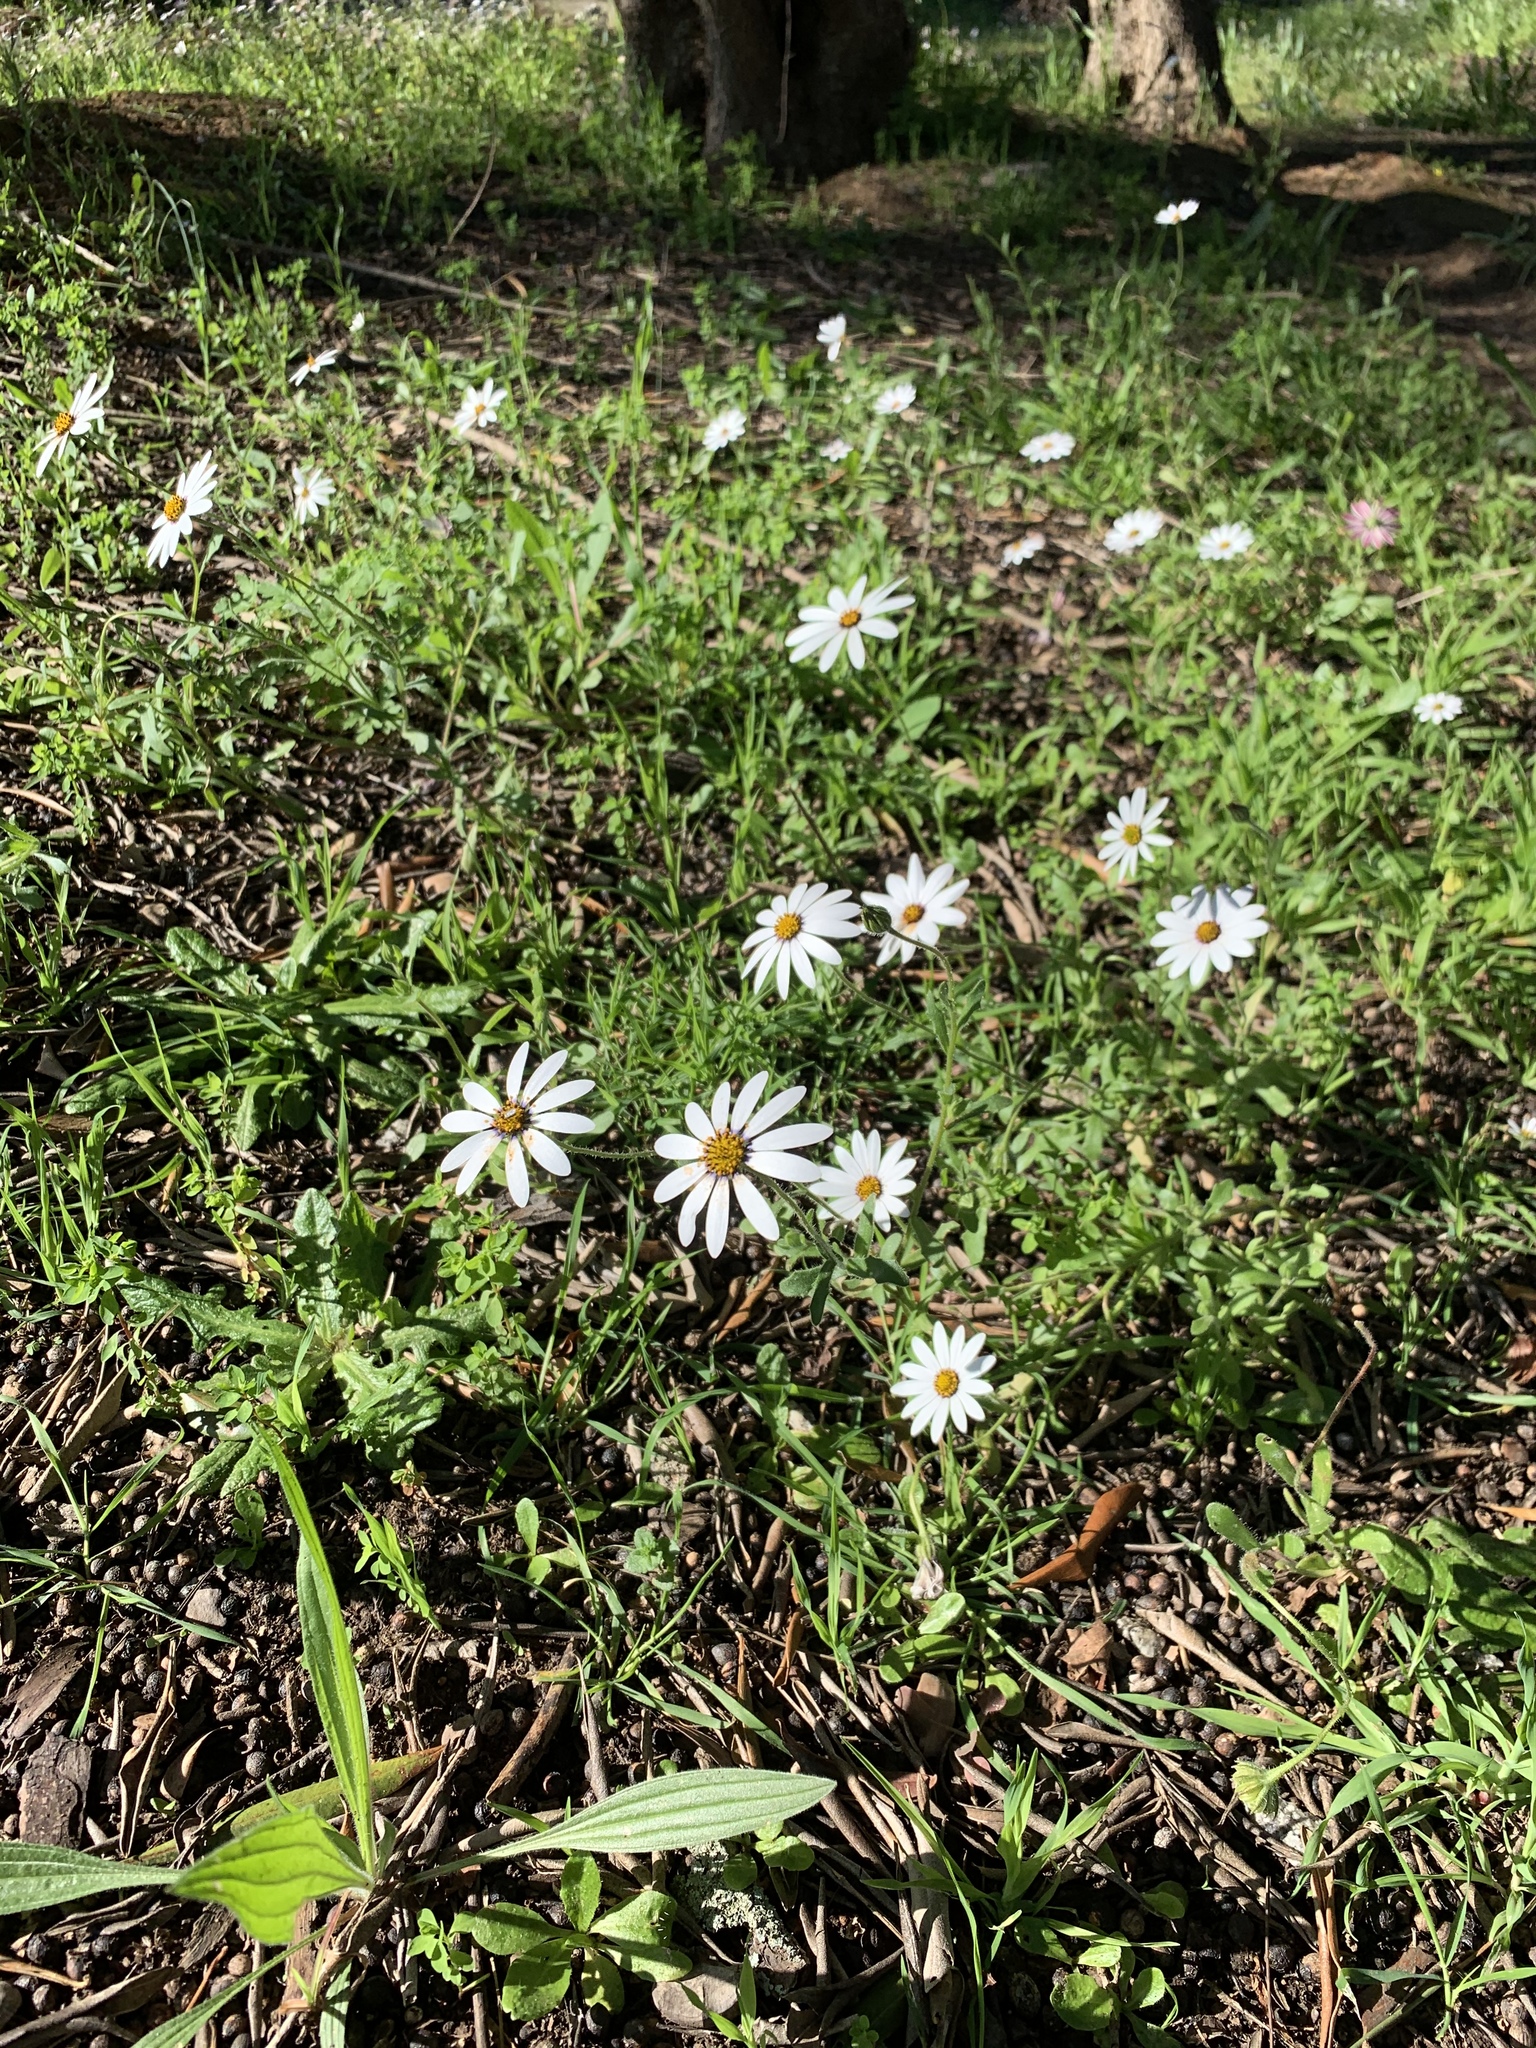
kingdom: Plantae
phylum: Tracheophyta
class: Magnoliopsida
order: Asterales
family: Asteraceae
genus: Dimorphotheca
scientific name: Dimorphotheca pluvialis
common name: Weather prophet
